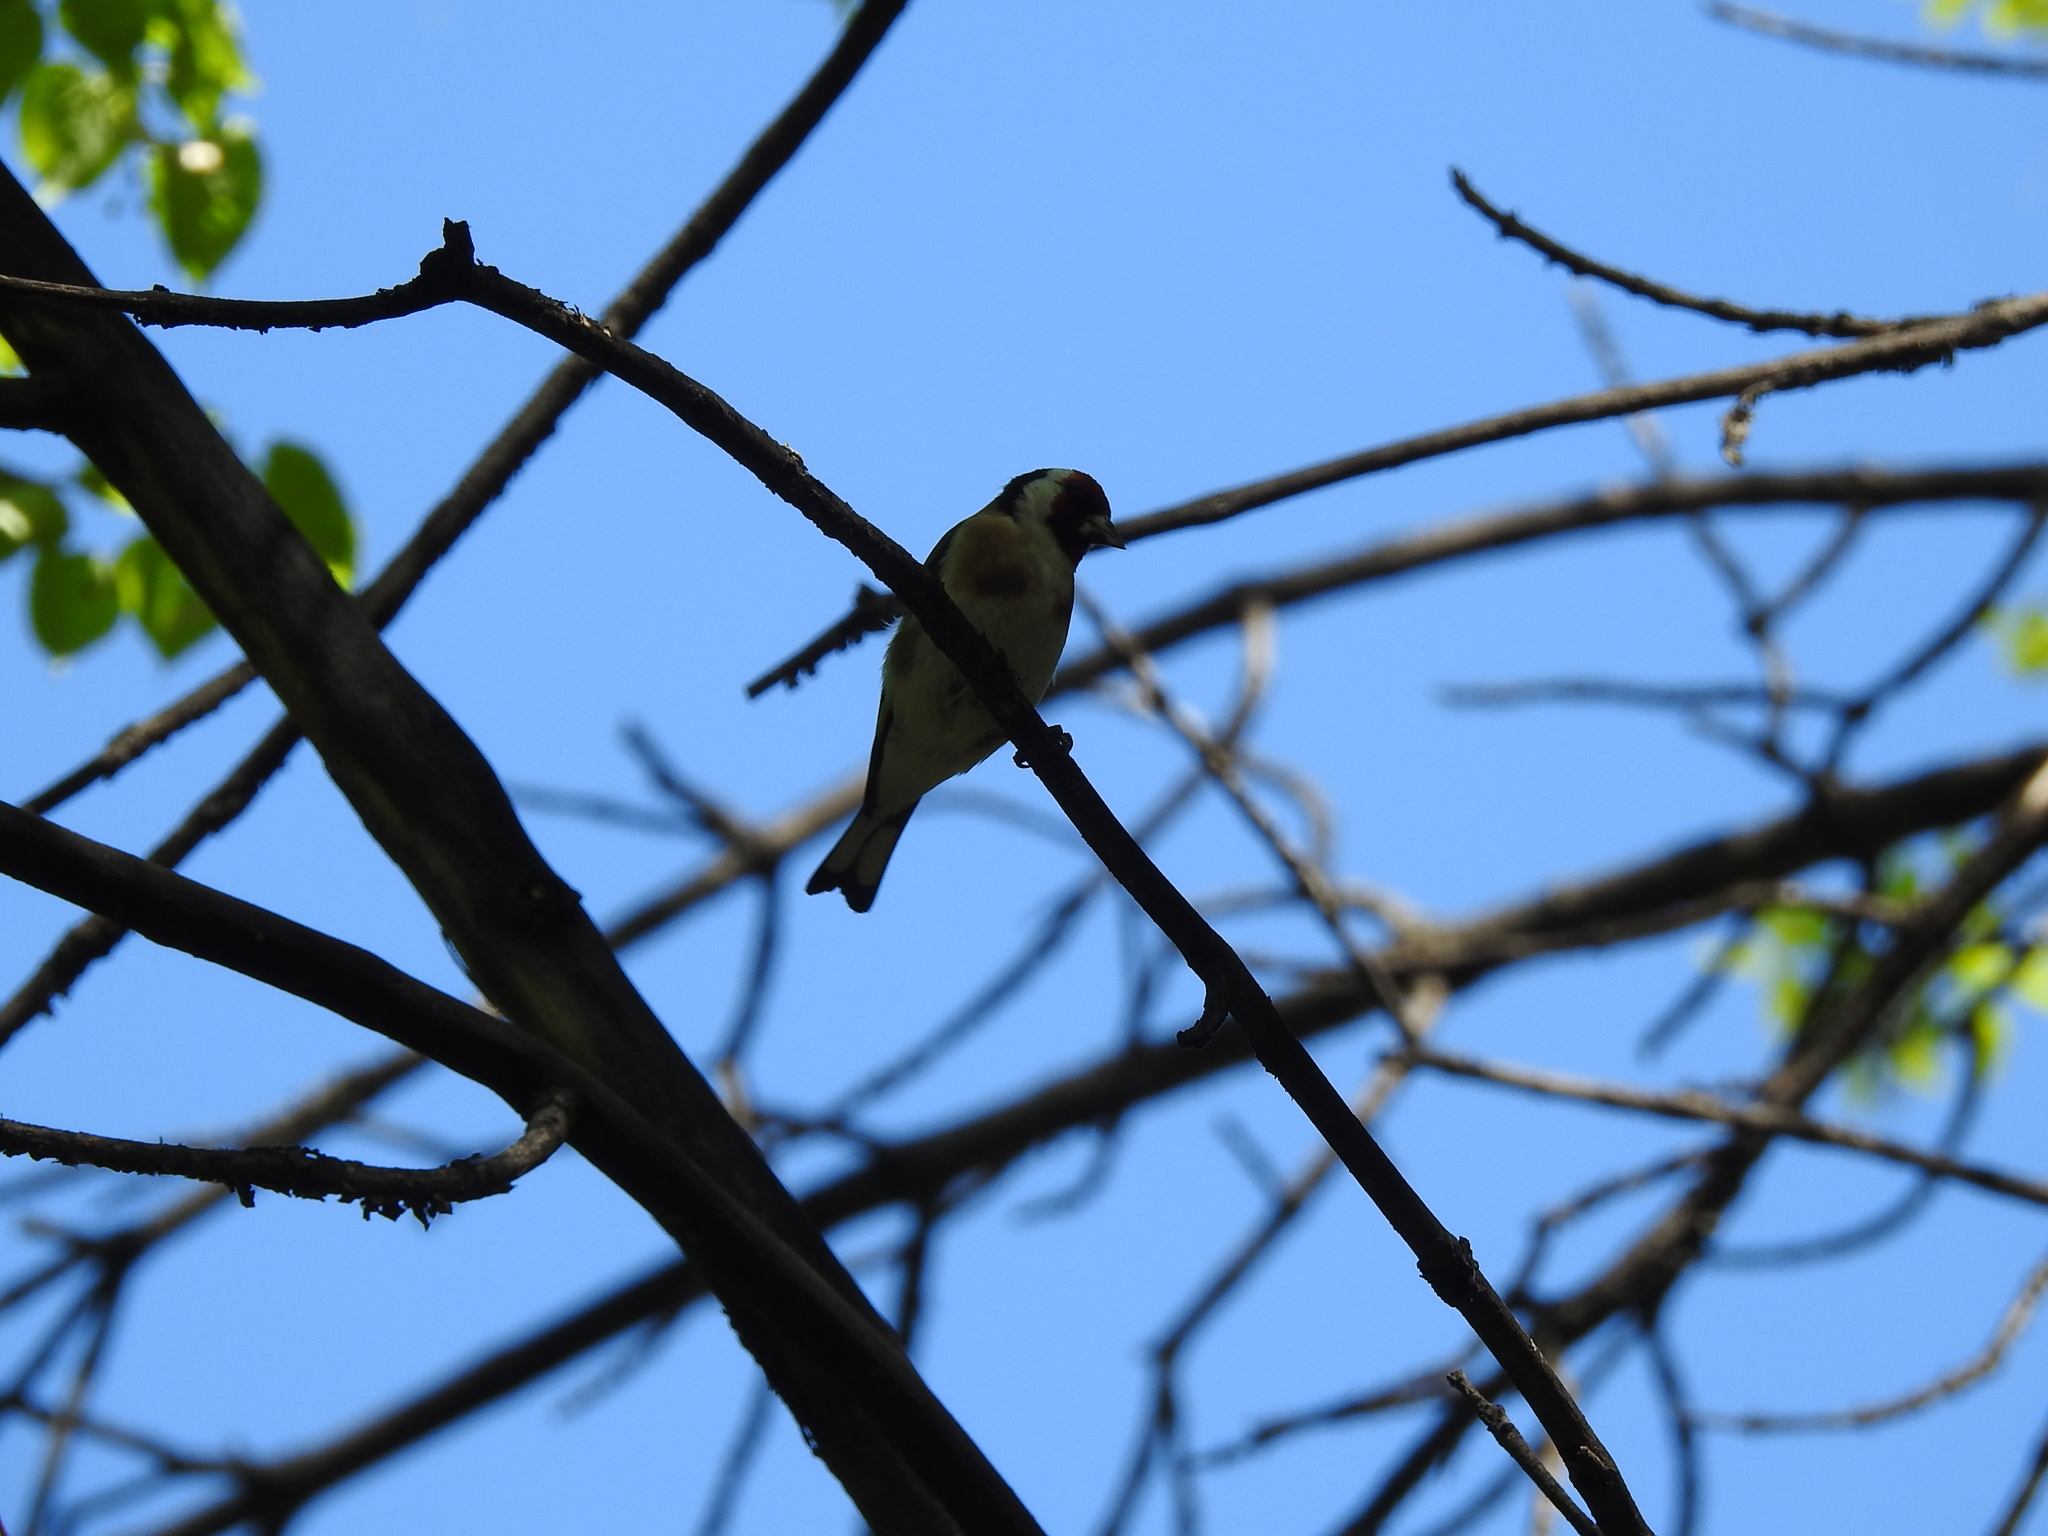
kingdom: Animalia
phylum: Chordata
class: Aves
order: Passeriformes
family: Fringillidae
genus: Carduelis
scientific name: Carduelis carduelis
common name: European goldfinch
